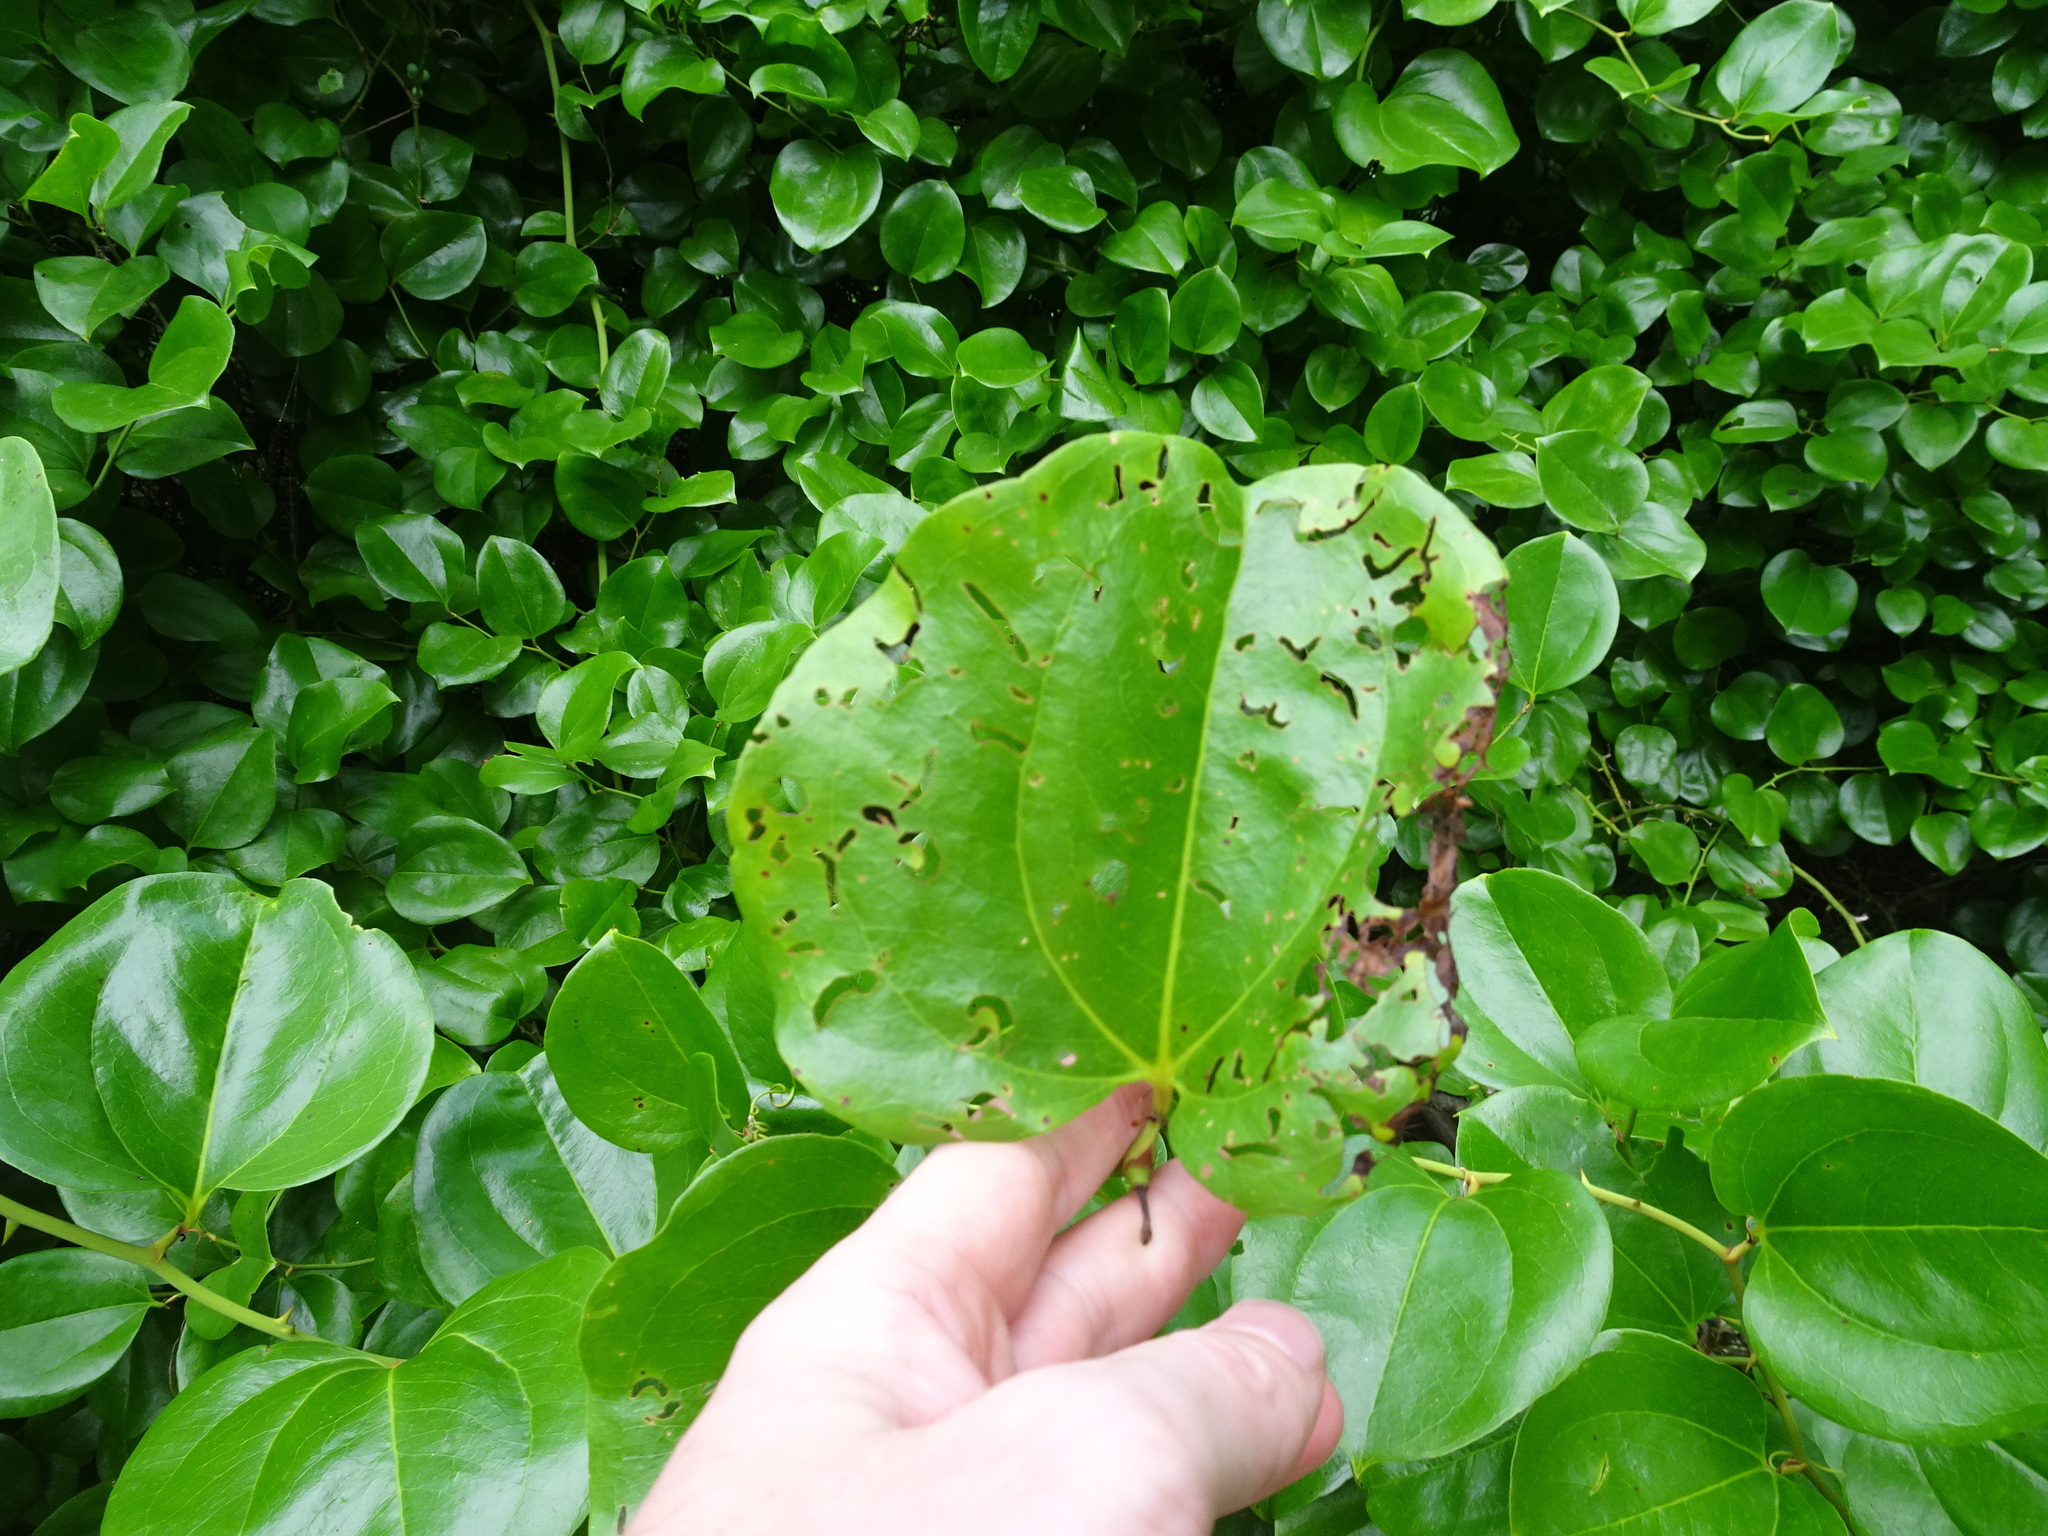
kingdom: Plantae
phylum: Tracheophyta
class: Liliopsida
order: Liliales
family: Smilacaceae
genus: Smilax
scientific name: Smilax rotundifolia
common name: Bullbriar
